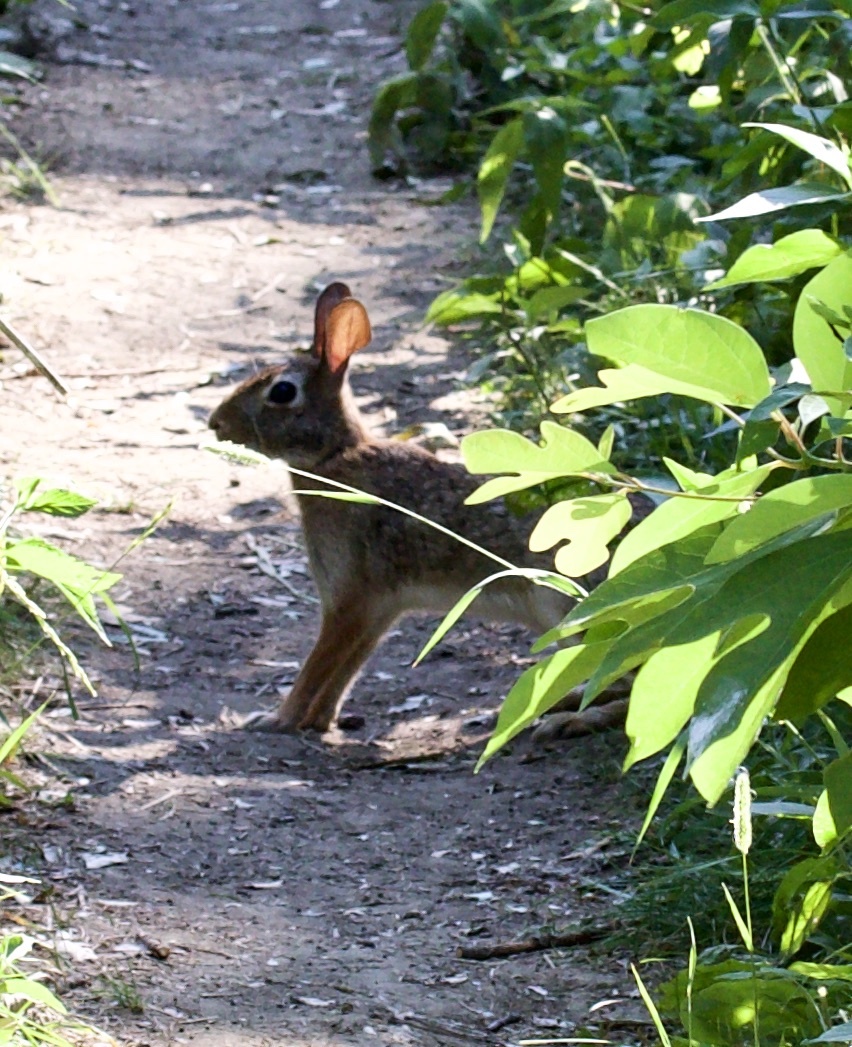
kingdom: Animalia
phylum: Chordata
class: Mammalia
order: Lagomorpha
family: Leporidae
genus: Sylvilagus
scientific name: Sylvilagus floridanus
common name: Eastern cottontail
